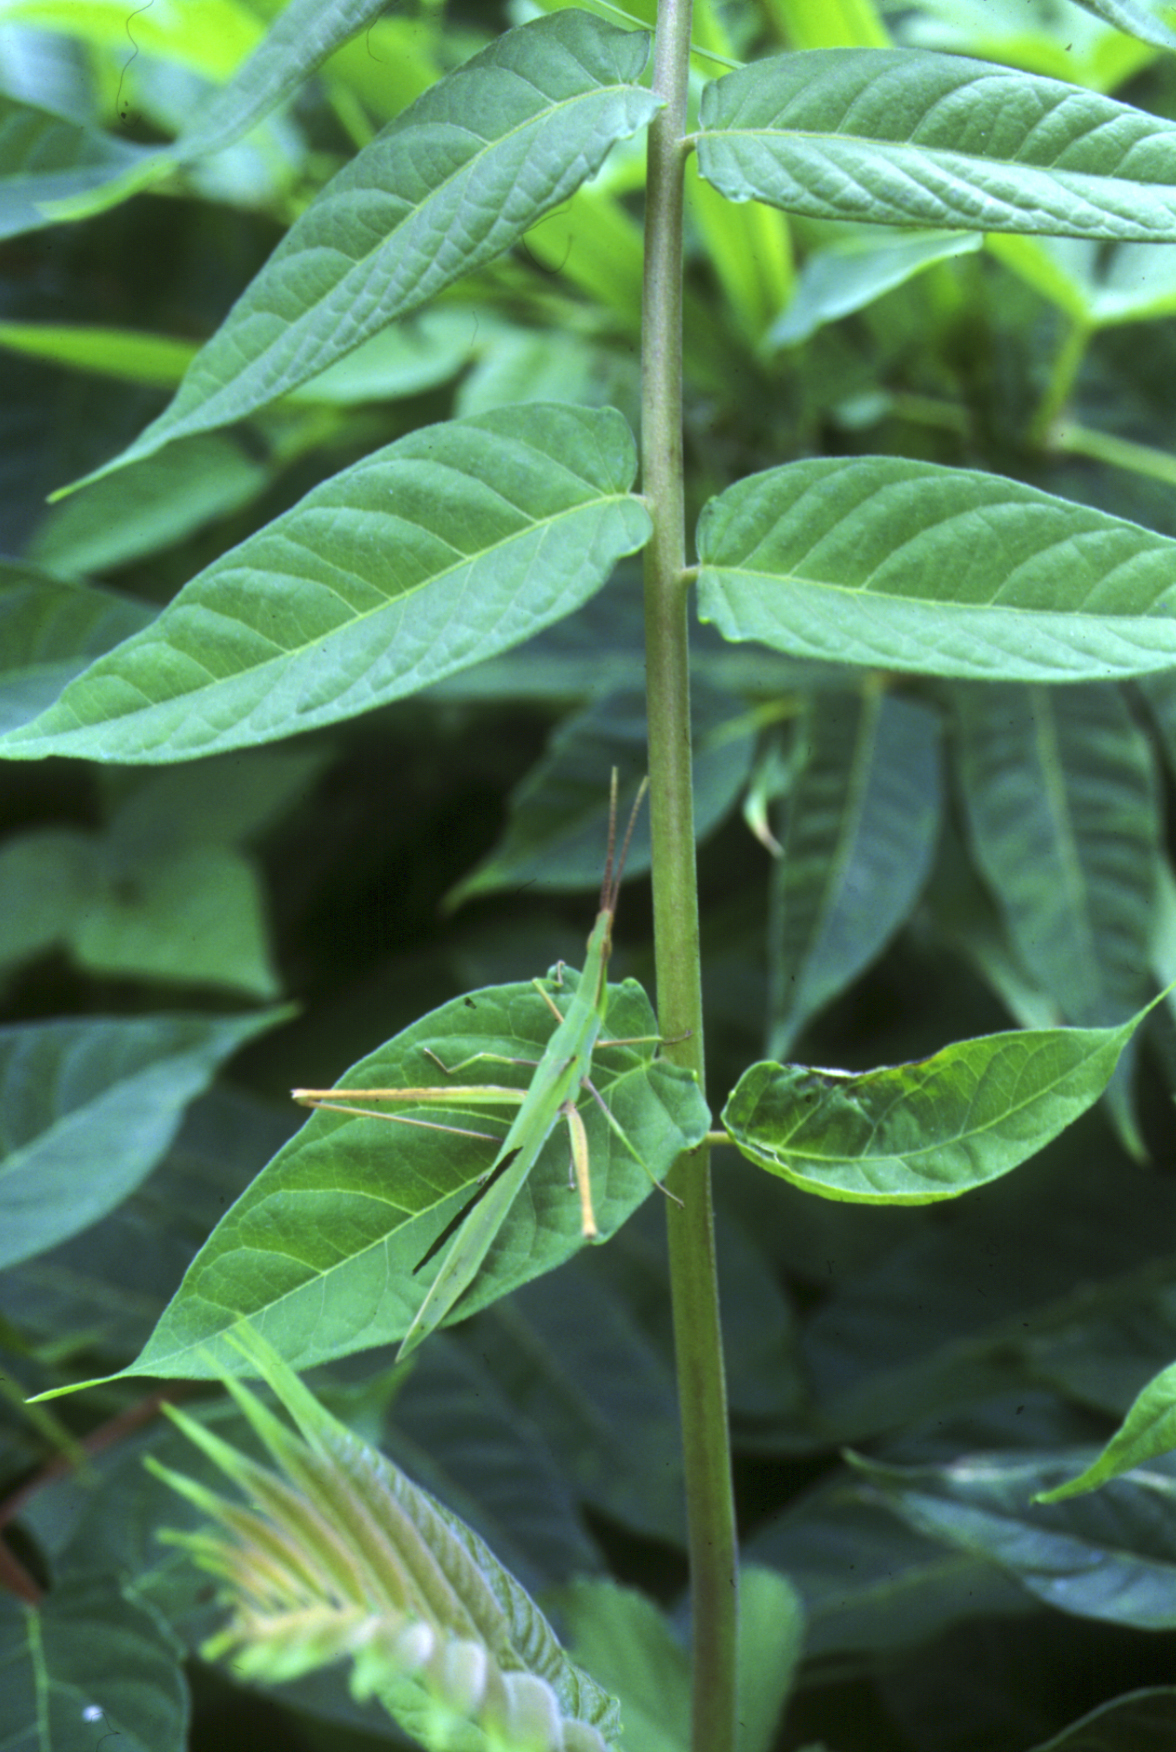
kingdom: Animalia
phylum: Arthropoda
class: Insecta
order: Orthoptera
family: Acrididae
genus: Acrida
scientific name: Acrida cinerea
